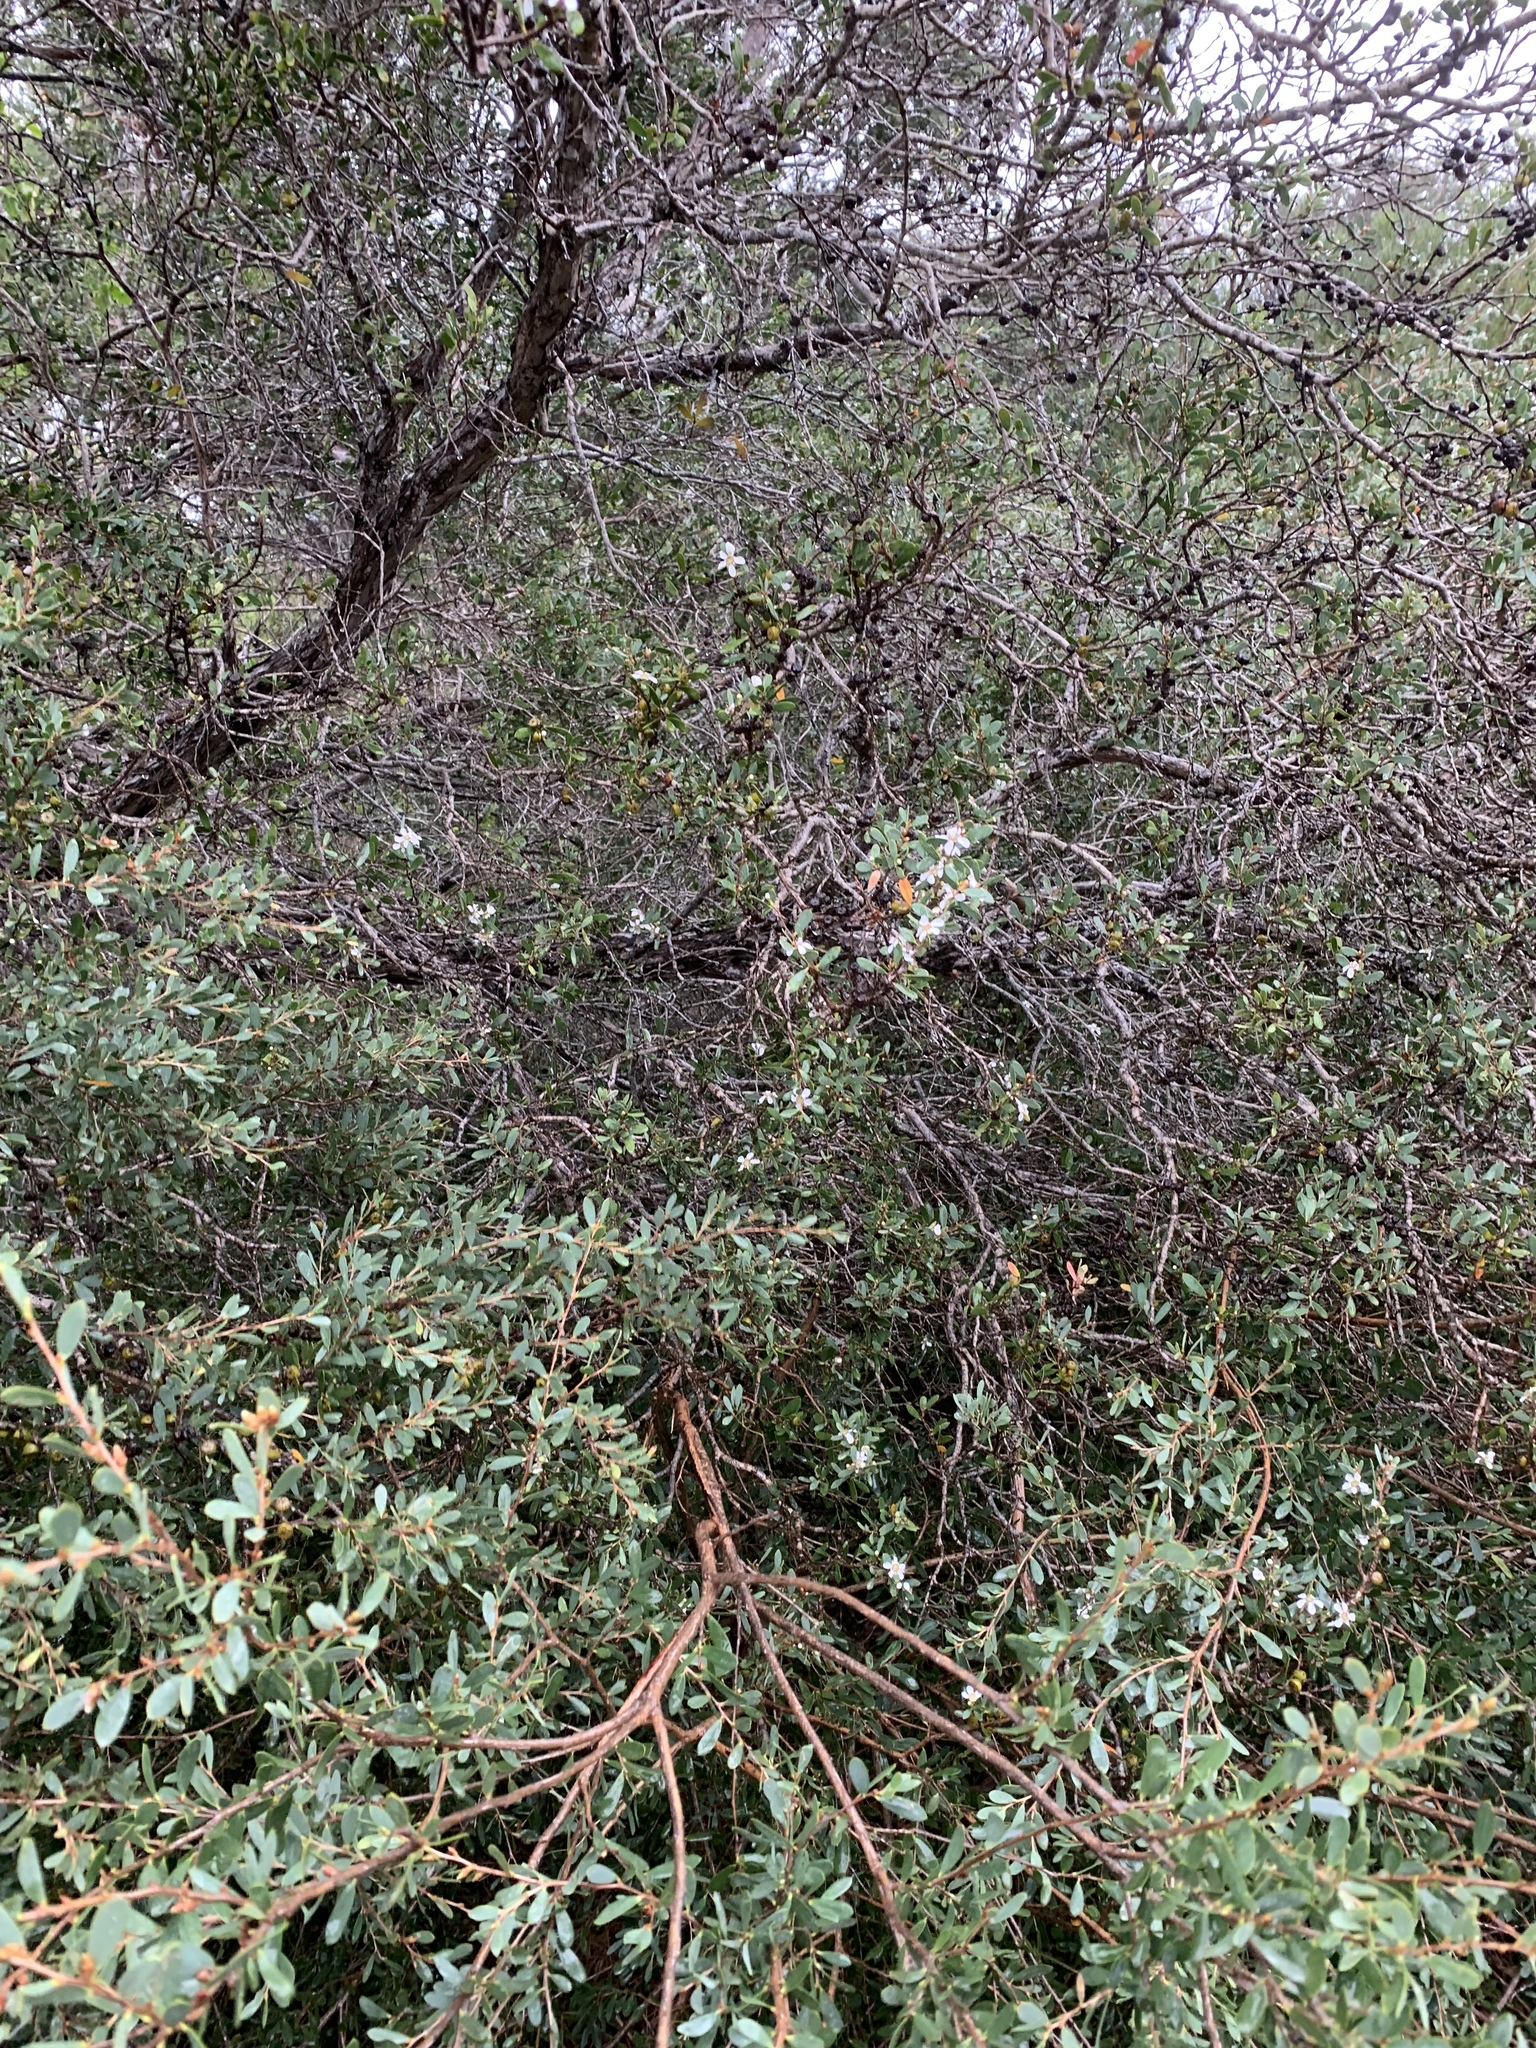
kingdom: Plantae
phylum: Tracheophyta
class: Magnoliopsida
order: Myrtales
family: Myrtaceae
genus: Leptospermum
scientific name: Leptospermum laevigatum
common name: Australian teatree
